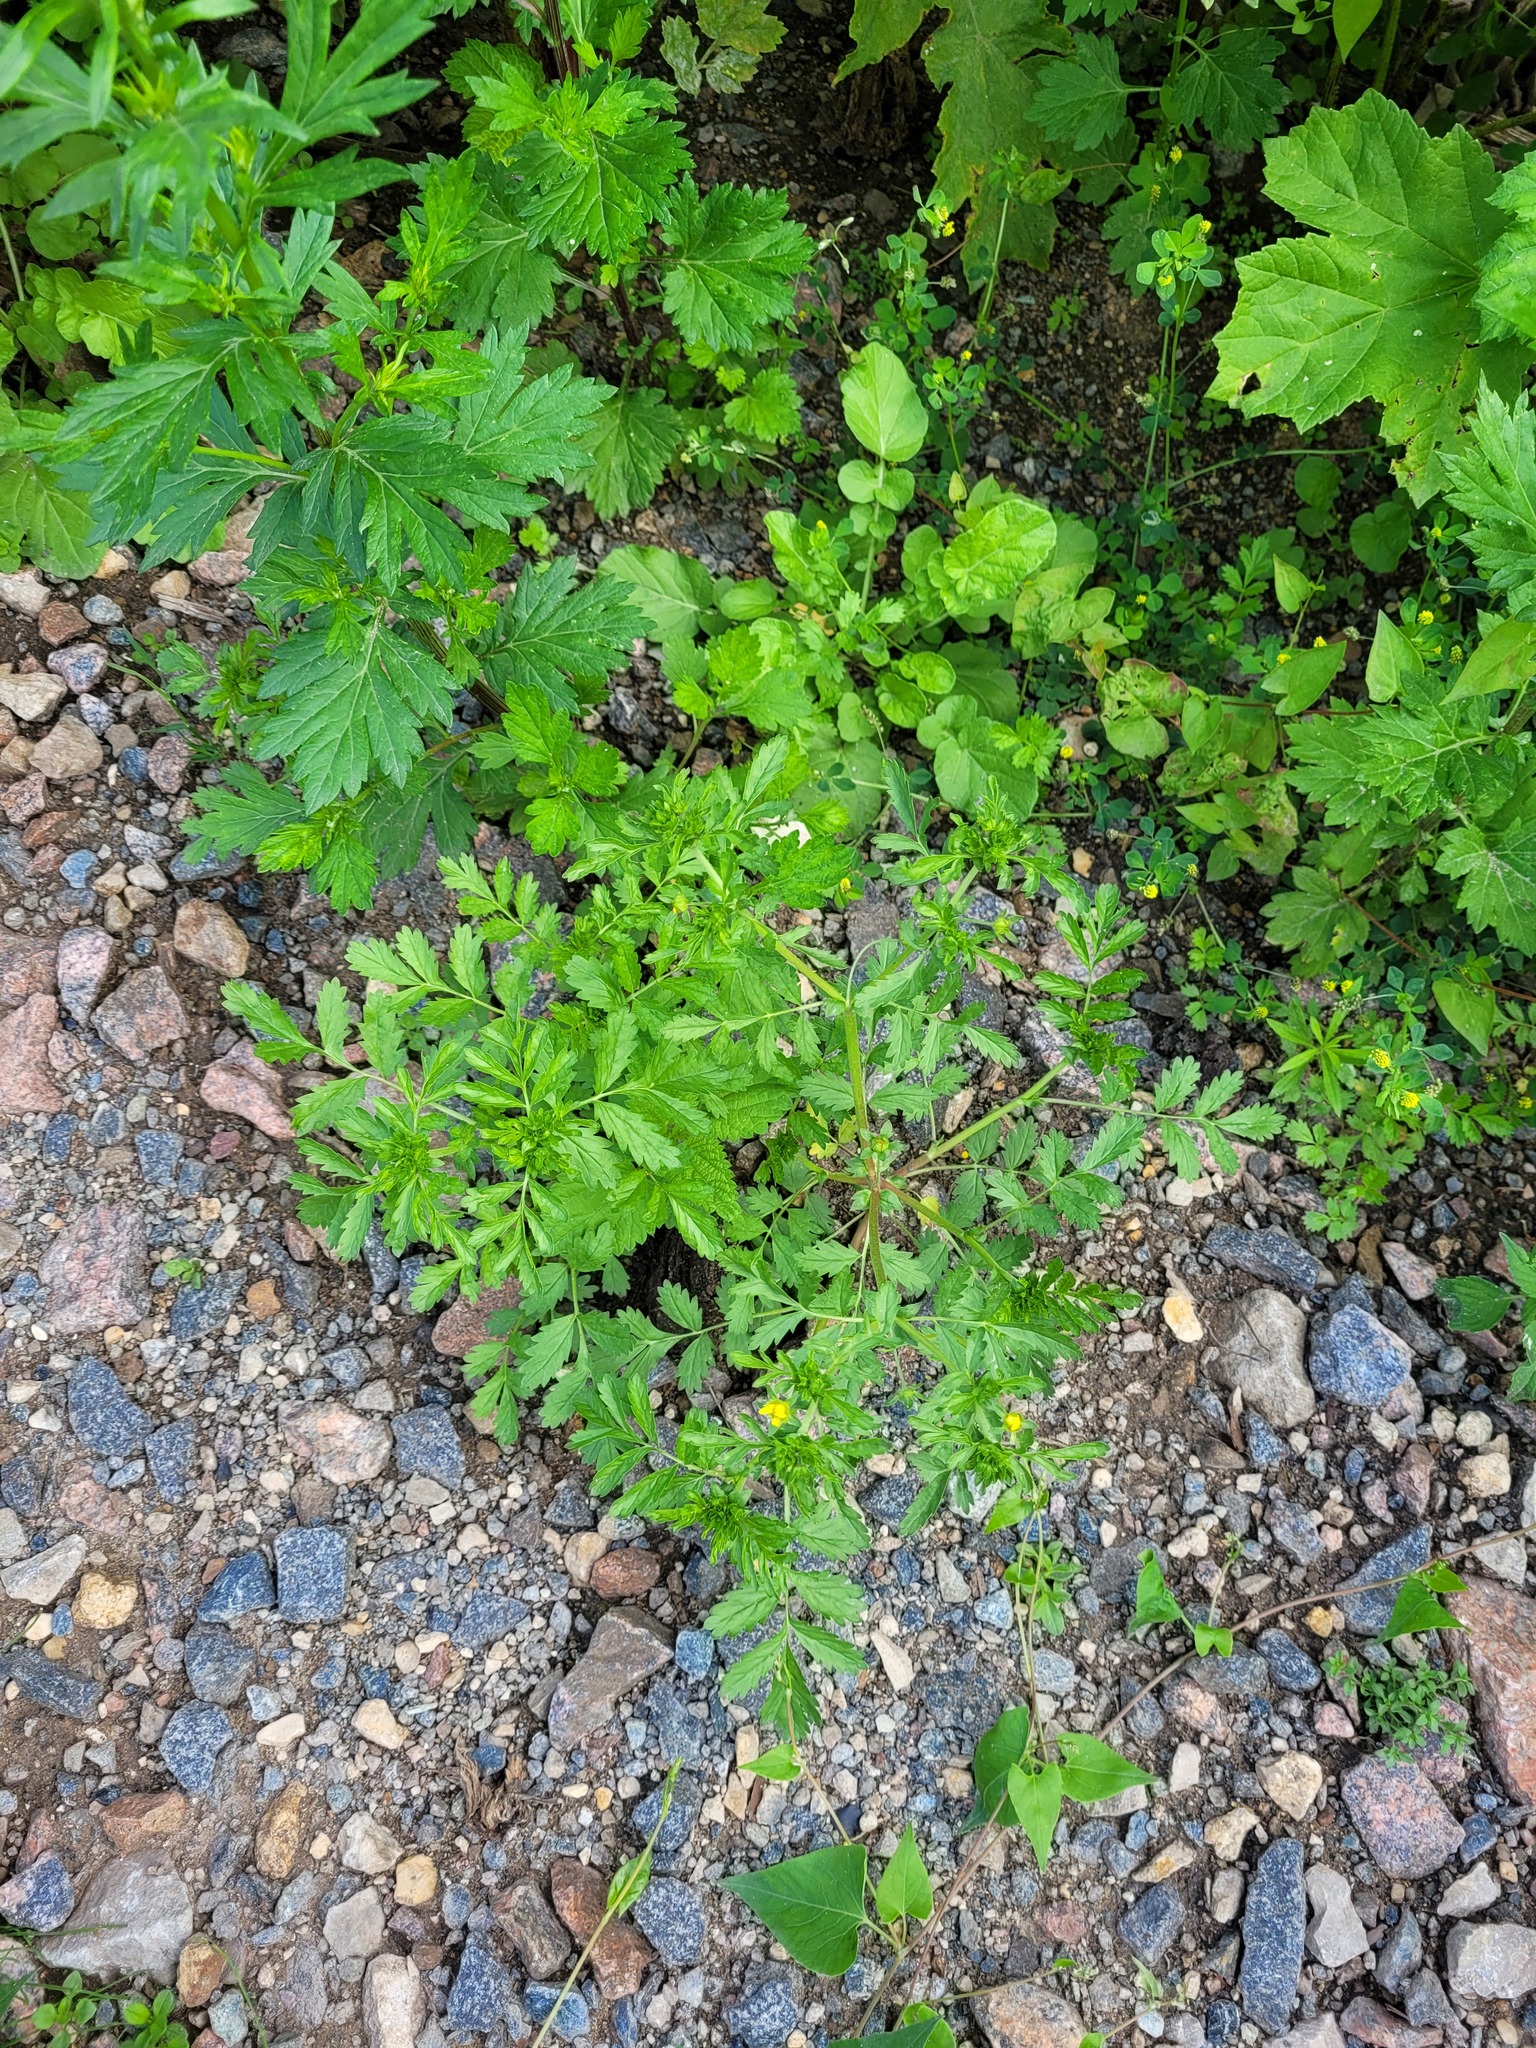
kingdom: Plantae
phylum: Tracheophyta
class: Magnoliopsida
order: Rosales
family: Rosaceae
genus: Potentilla
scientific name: Potentilla supina
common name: Prostrate cinquefoil
